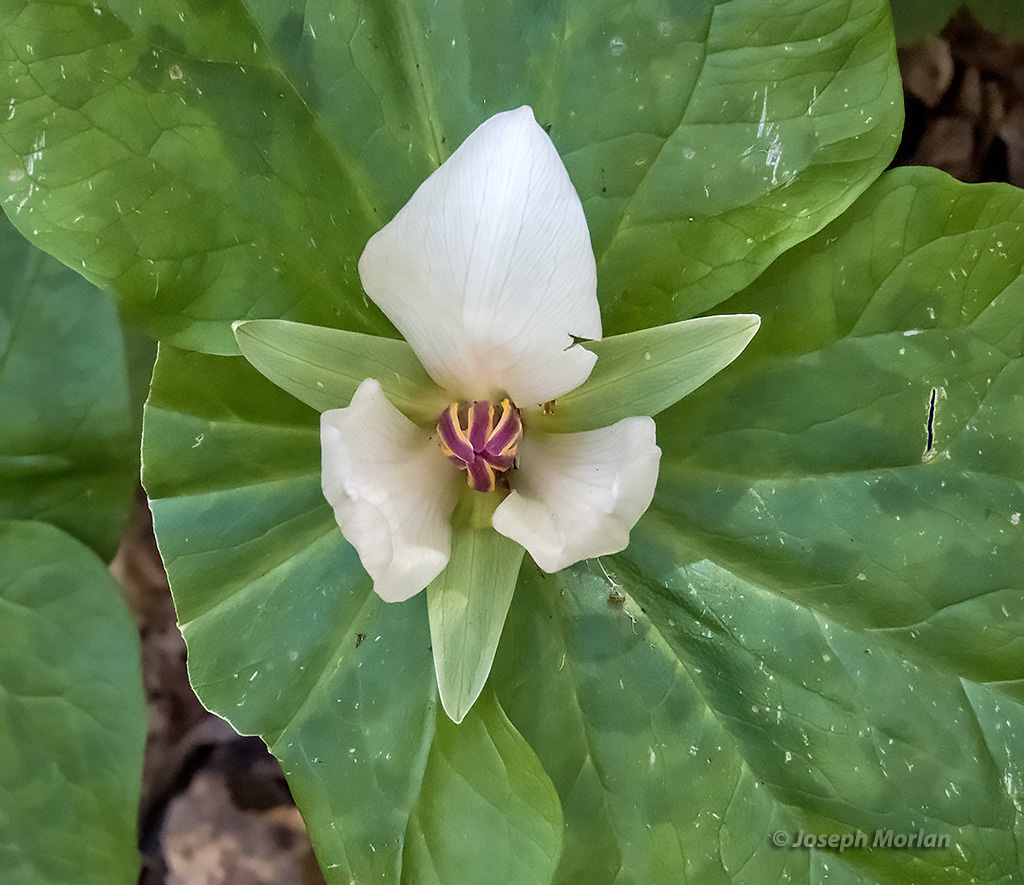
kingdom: Plantae
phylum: Tracheophyta
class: Liliopsida
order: Liliales
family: Melanthiaceae
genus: Trillium
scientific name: Trillium chloropetalum
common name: Giant trillium
